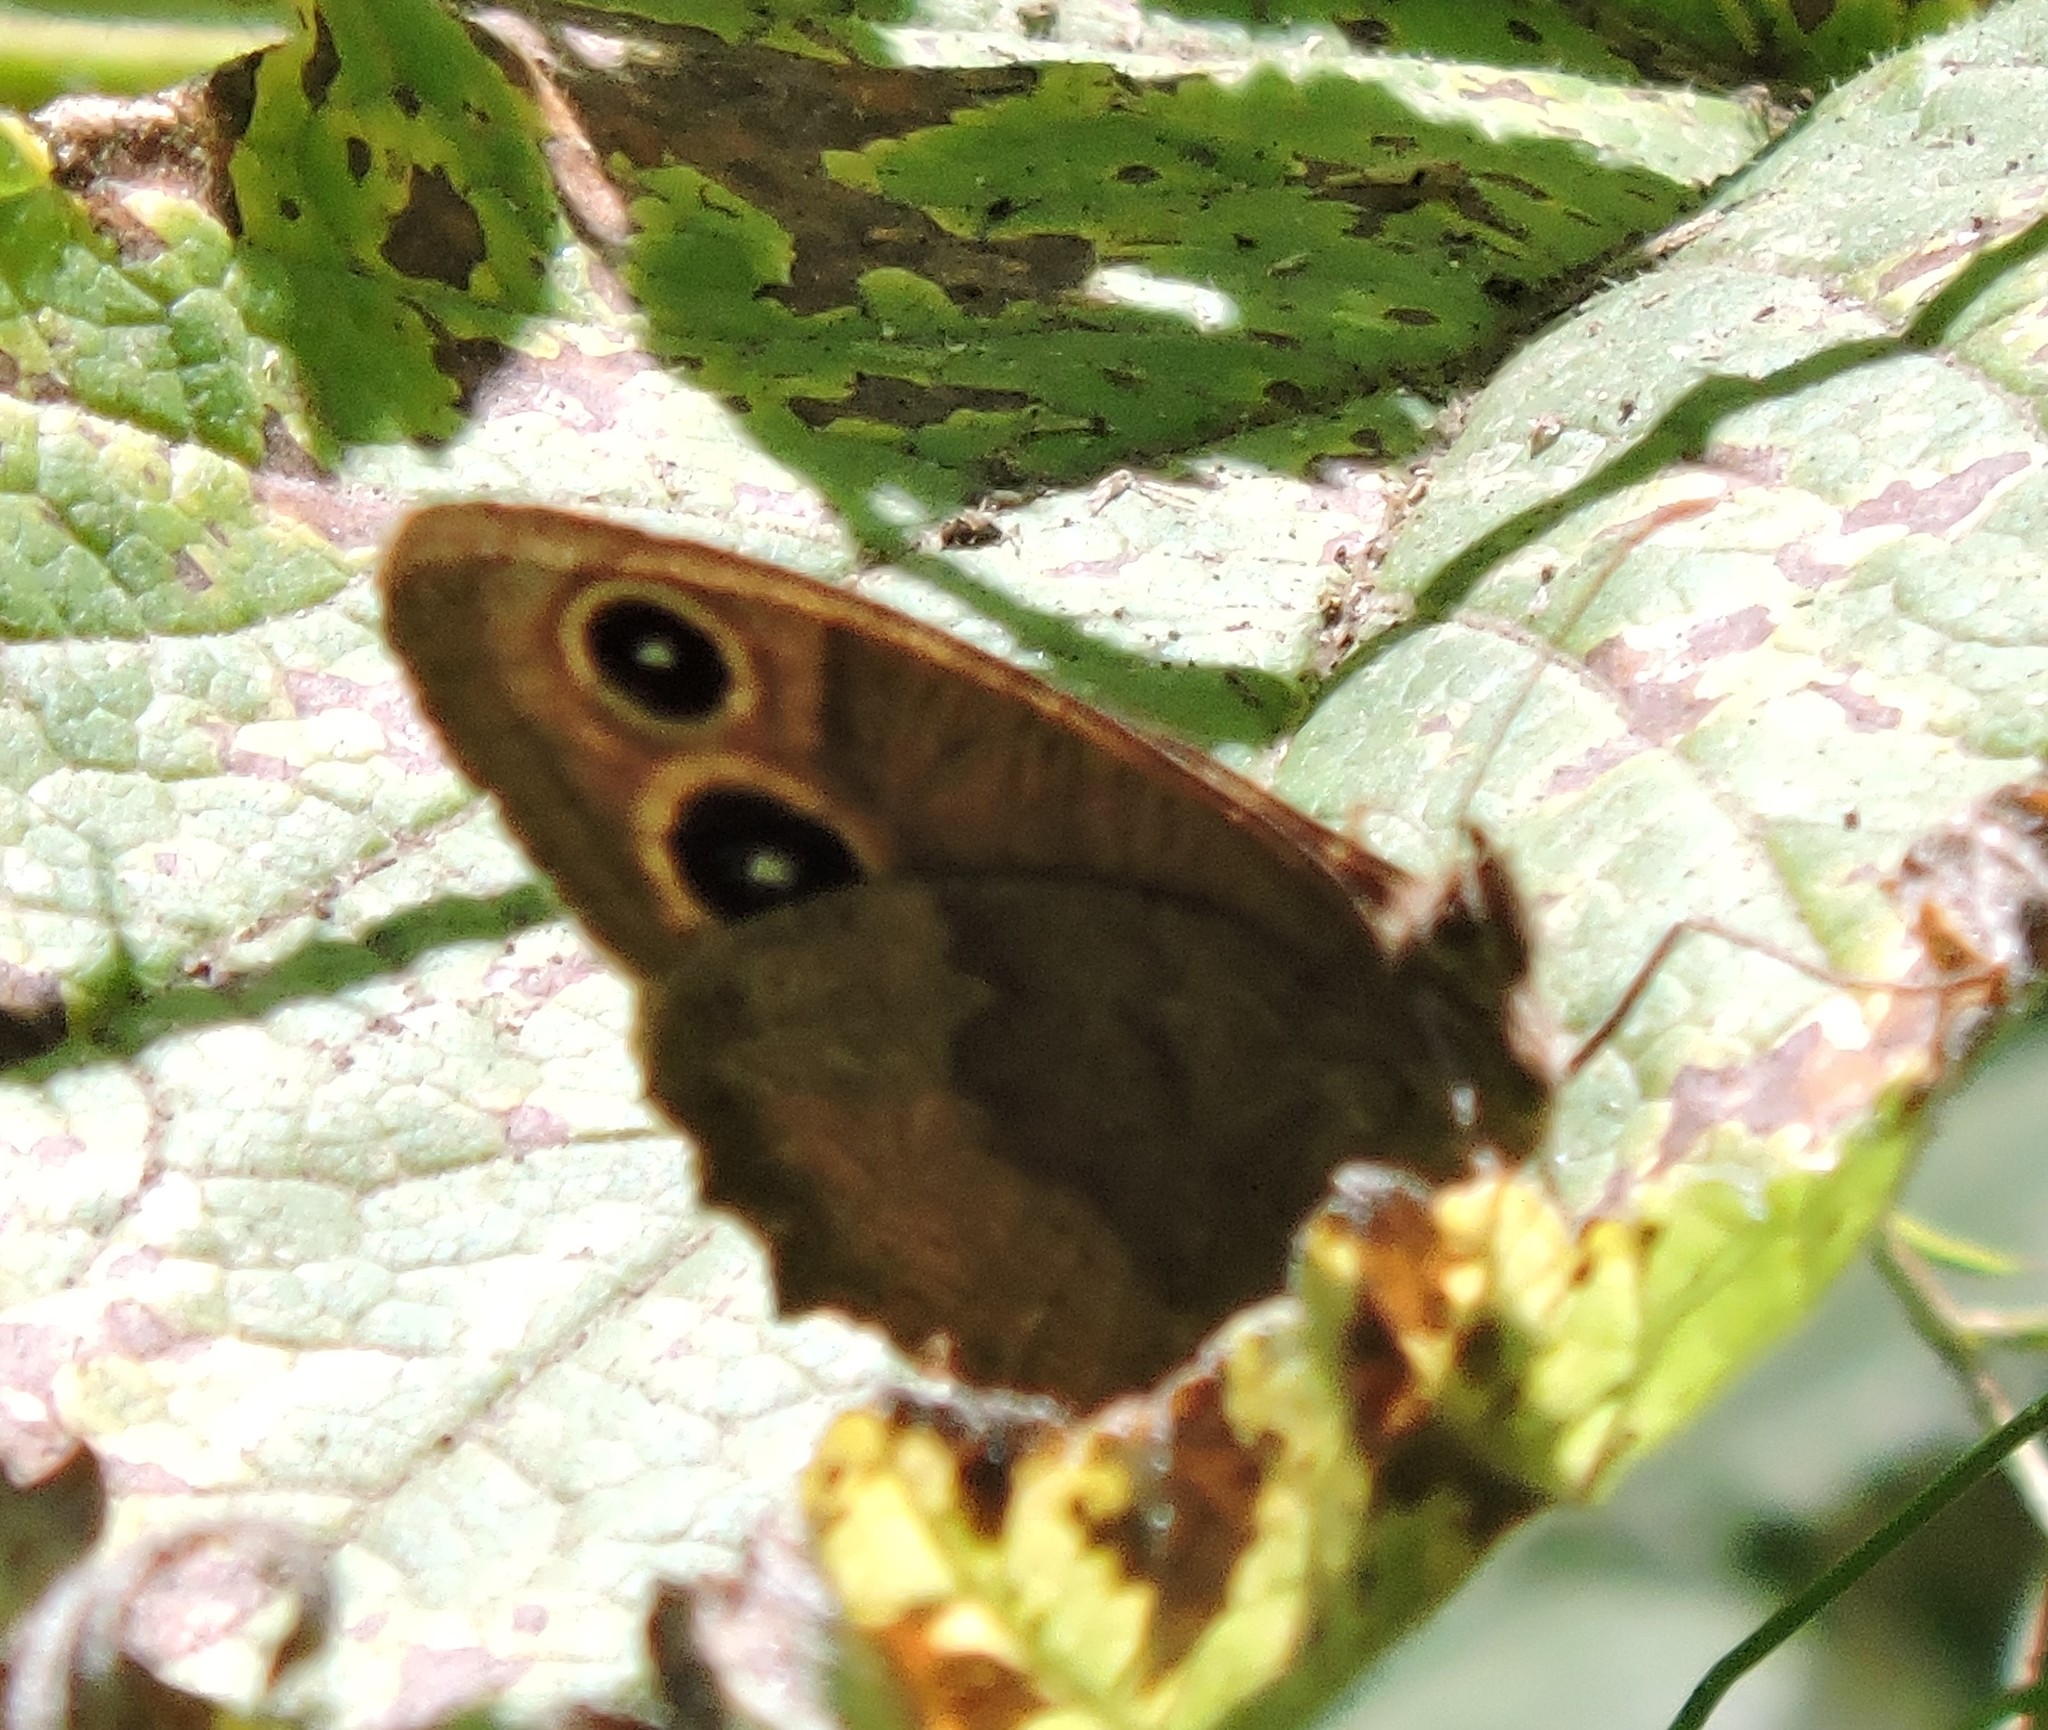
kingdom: Animalia
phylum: Arthropoda
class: Insecta
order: Lepidoptera
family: Nymphalidae
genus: Cercyonis
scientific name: Cercyonis pegala
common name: Common wood-nymph
